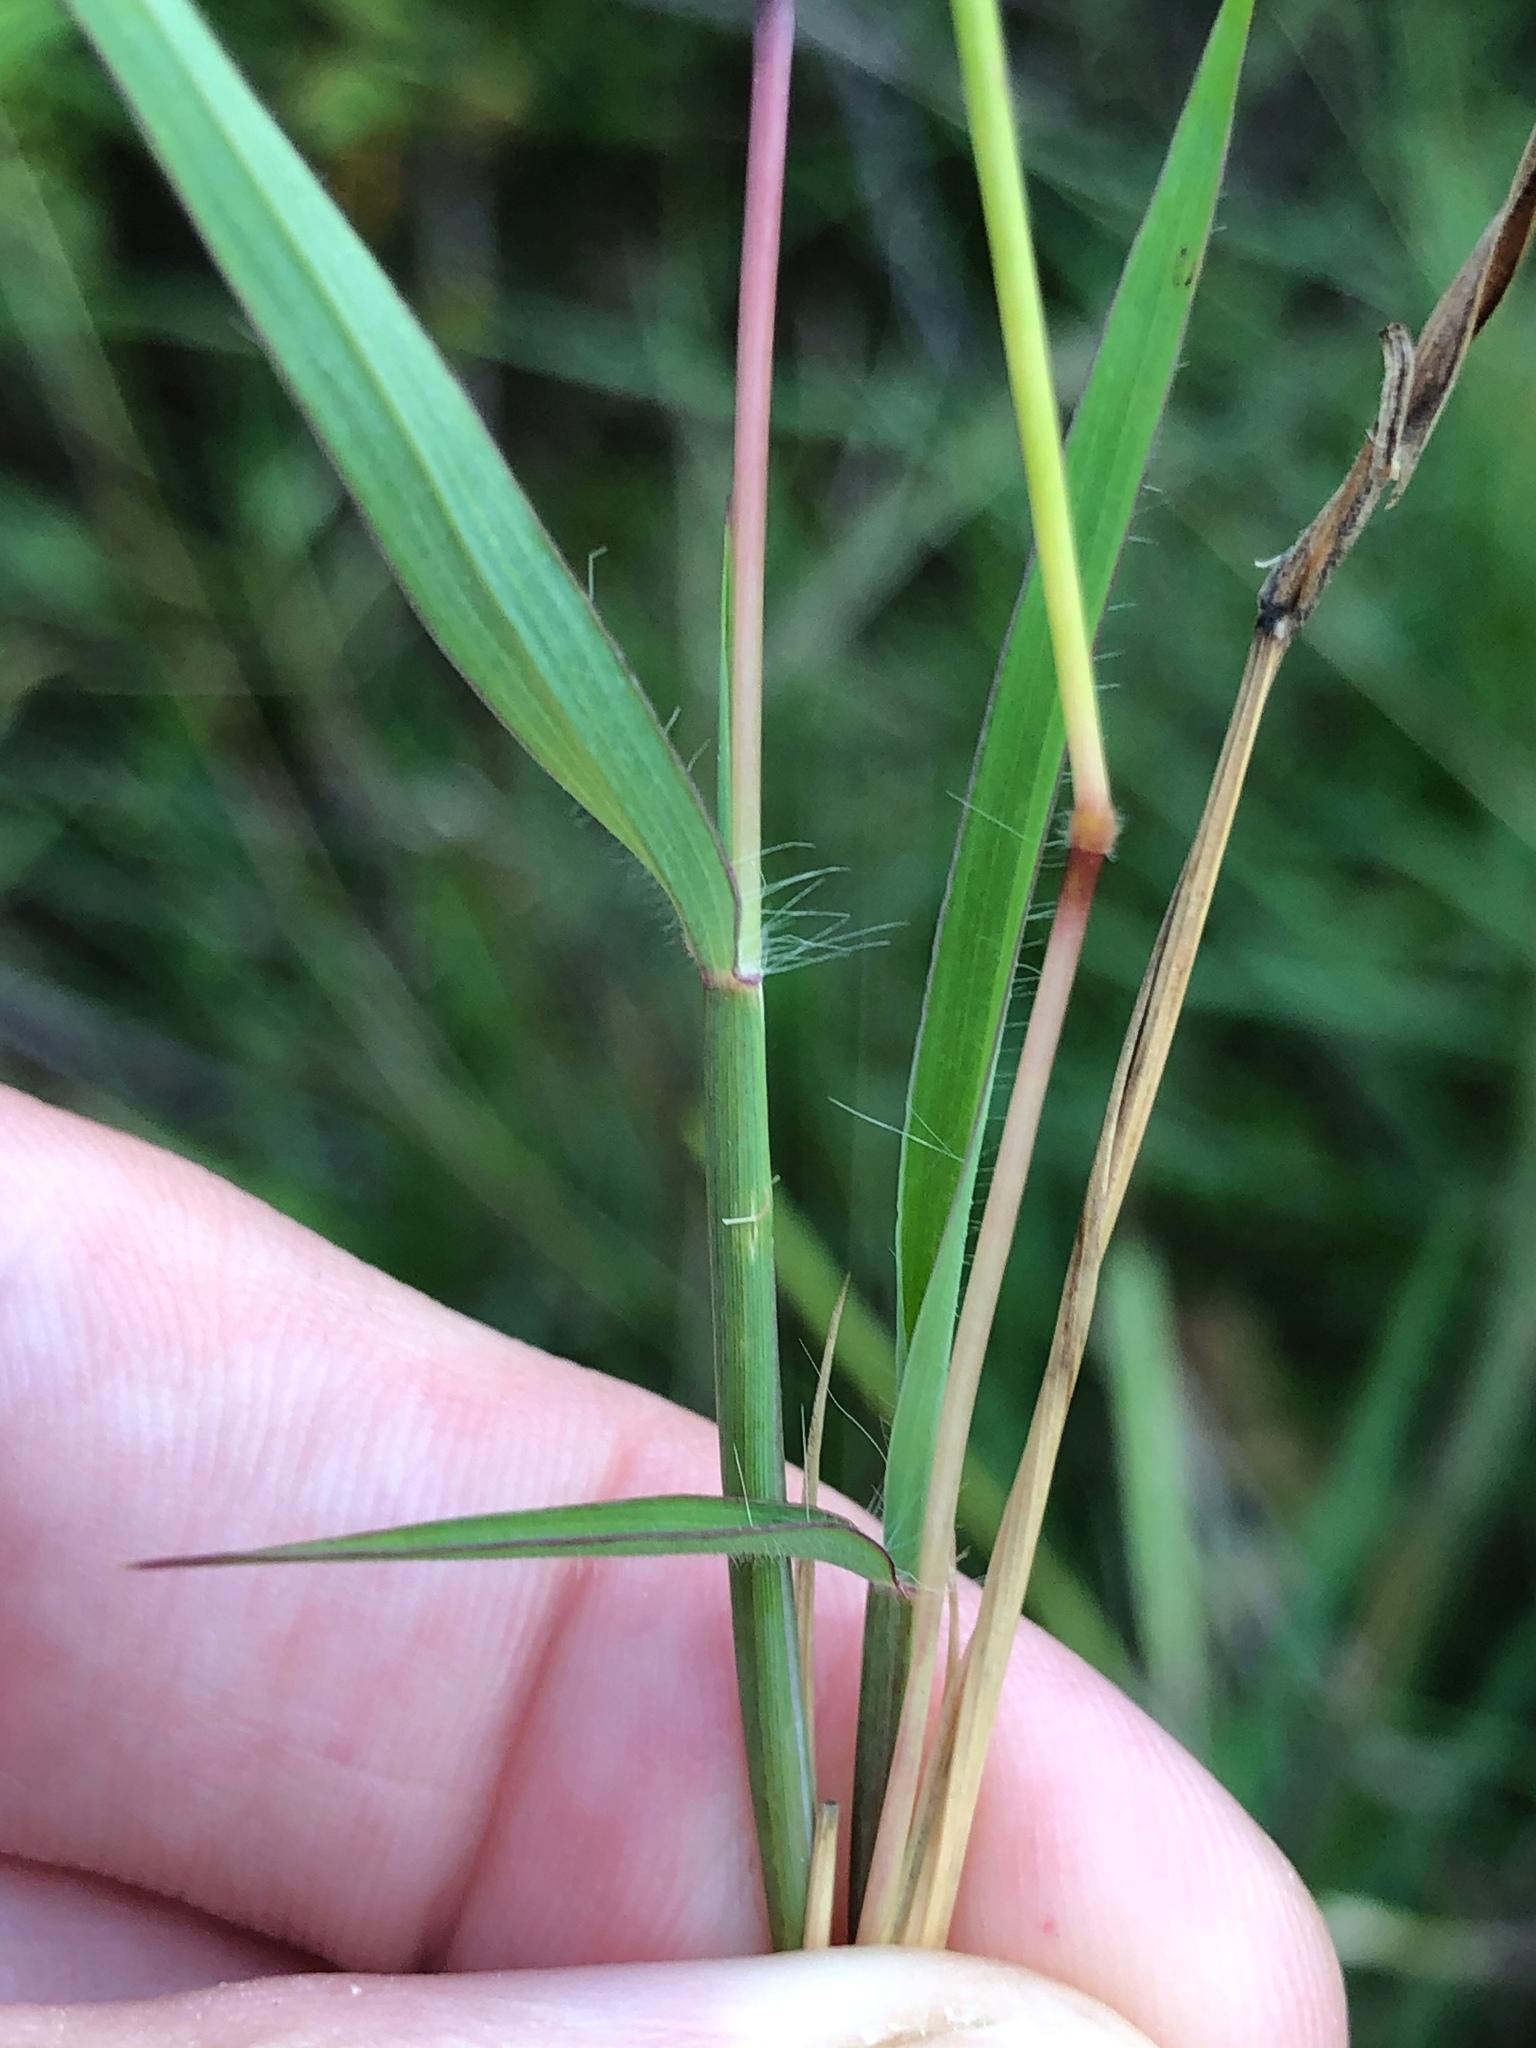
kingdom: Plantae
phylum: Tracheophyta
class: Liliopsida
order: Poales
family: Poaceae
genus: Dichanthium
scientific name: Dichanthium aristatum
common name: Angleton bluestem
